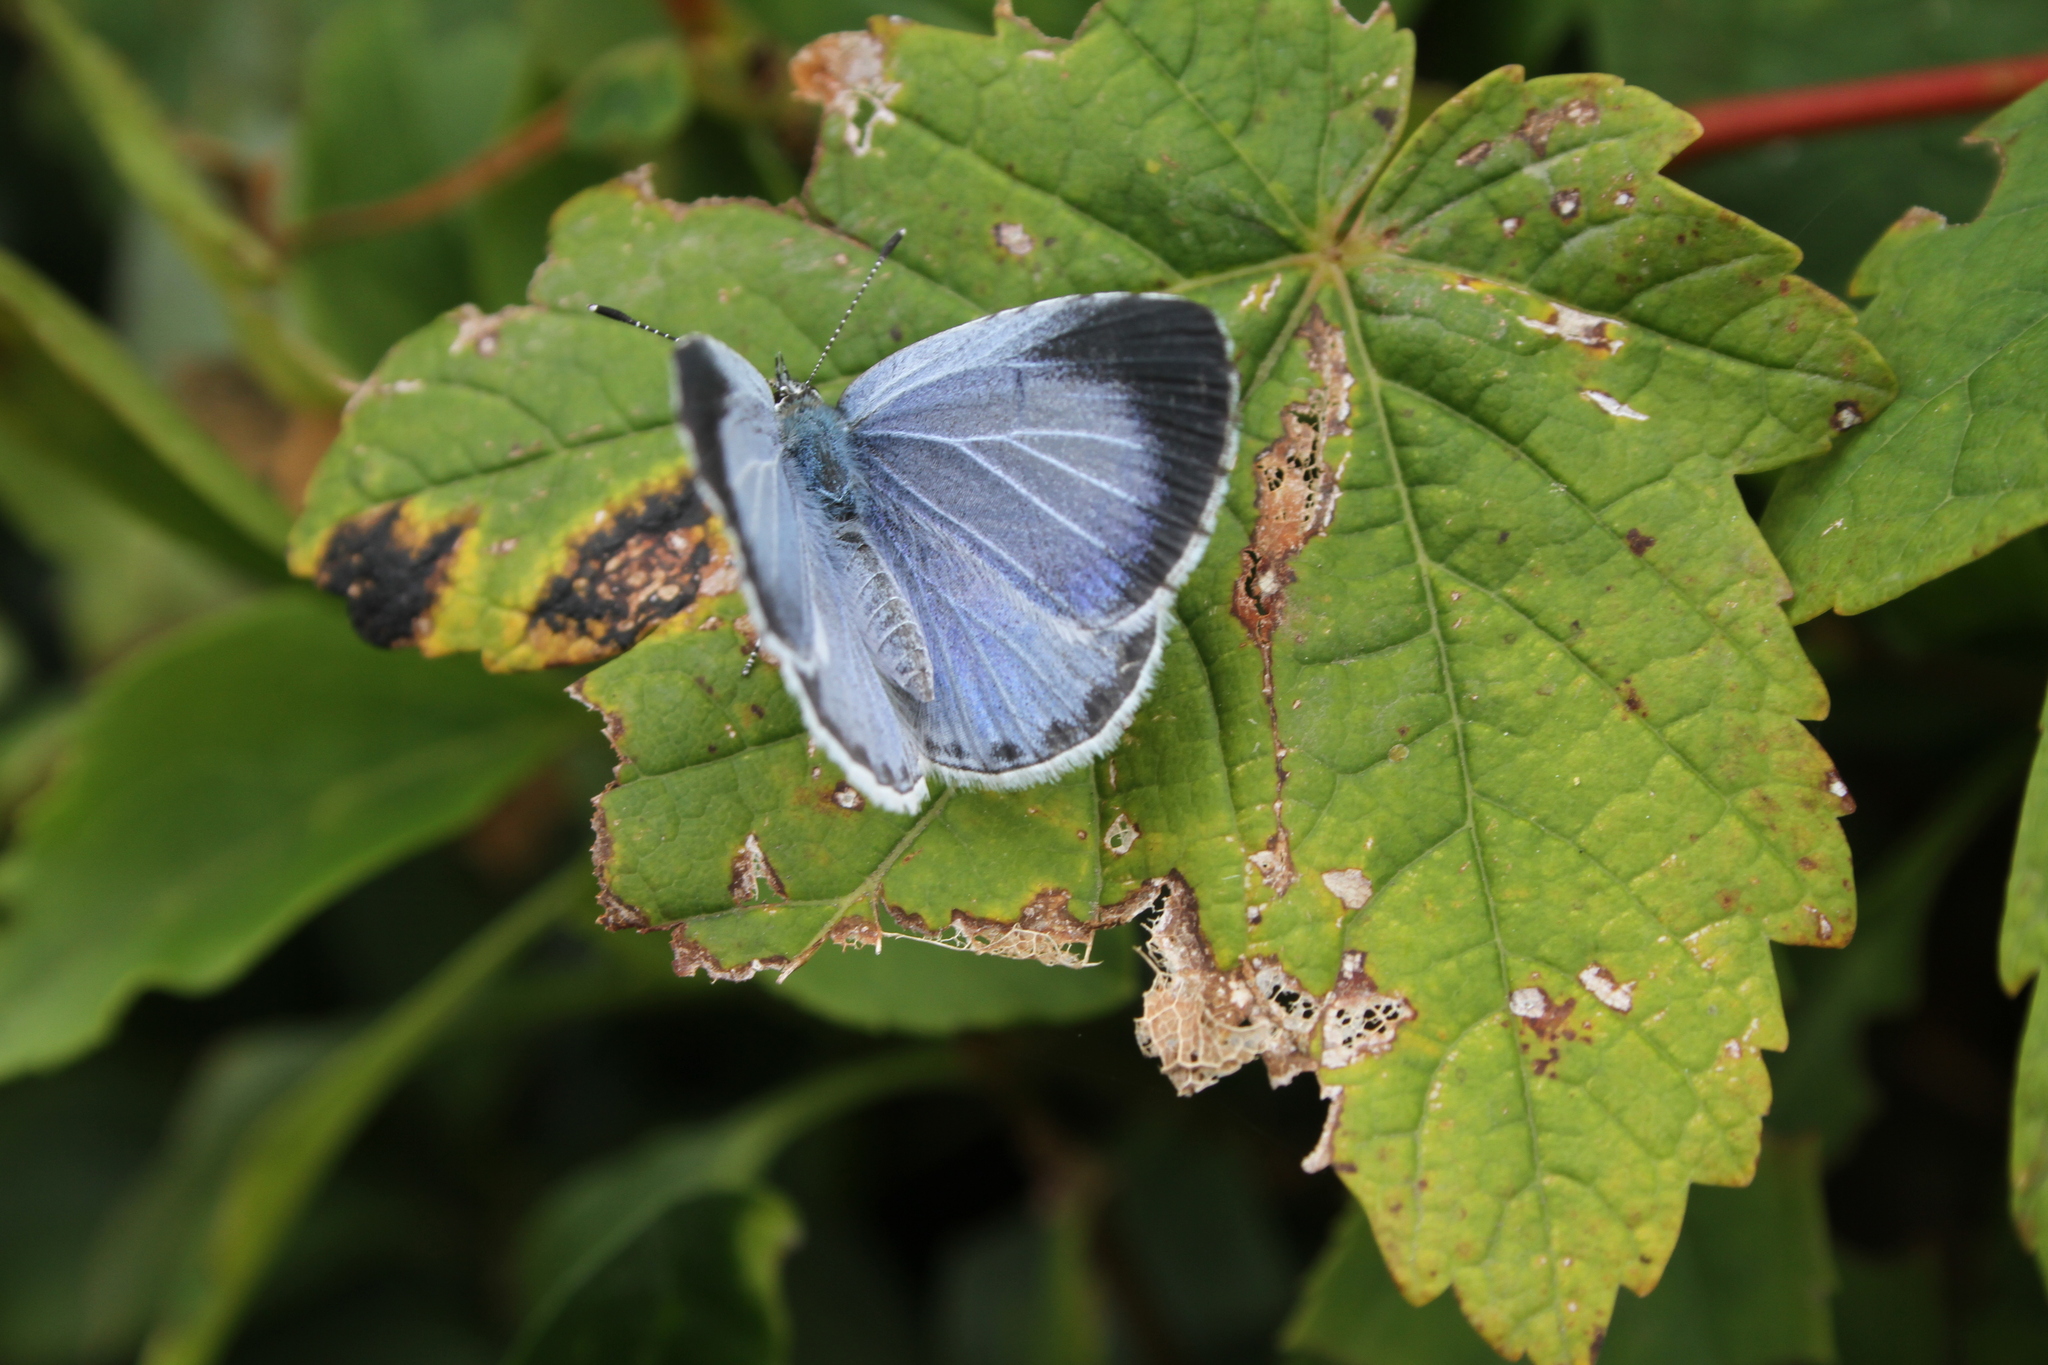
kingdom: Animalia
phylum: Arthropoda
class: Insecta
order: Lepidoptera
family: Lycaenidae
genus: Celastrina
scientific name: Celastrina argiolus
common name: Holly blue
